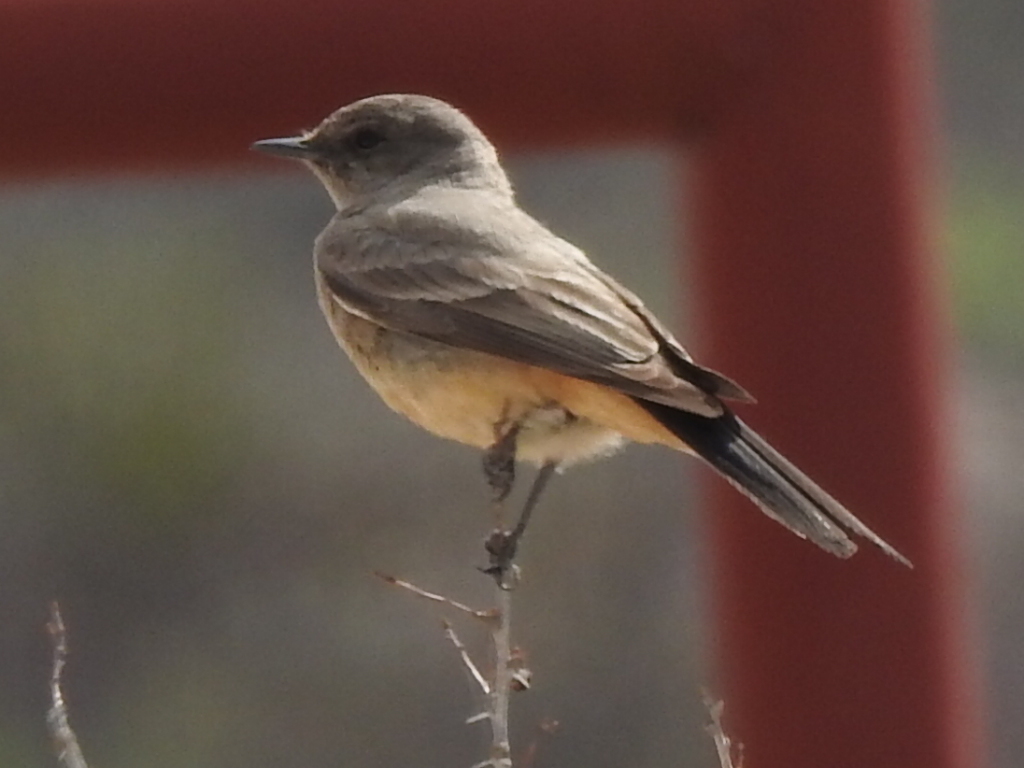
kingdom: Animalia
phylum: Chordata
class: Aves
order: Passeriformes
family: Tyrannidae
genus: Sayornis
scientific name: Sayornis saya
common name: Say's phoebe
